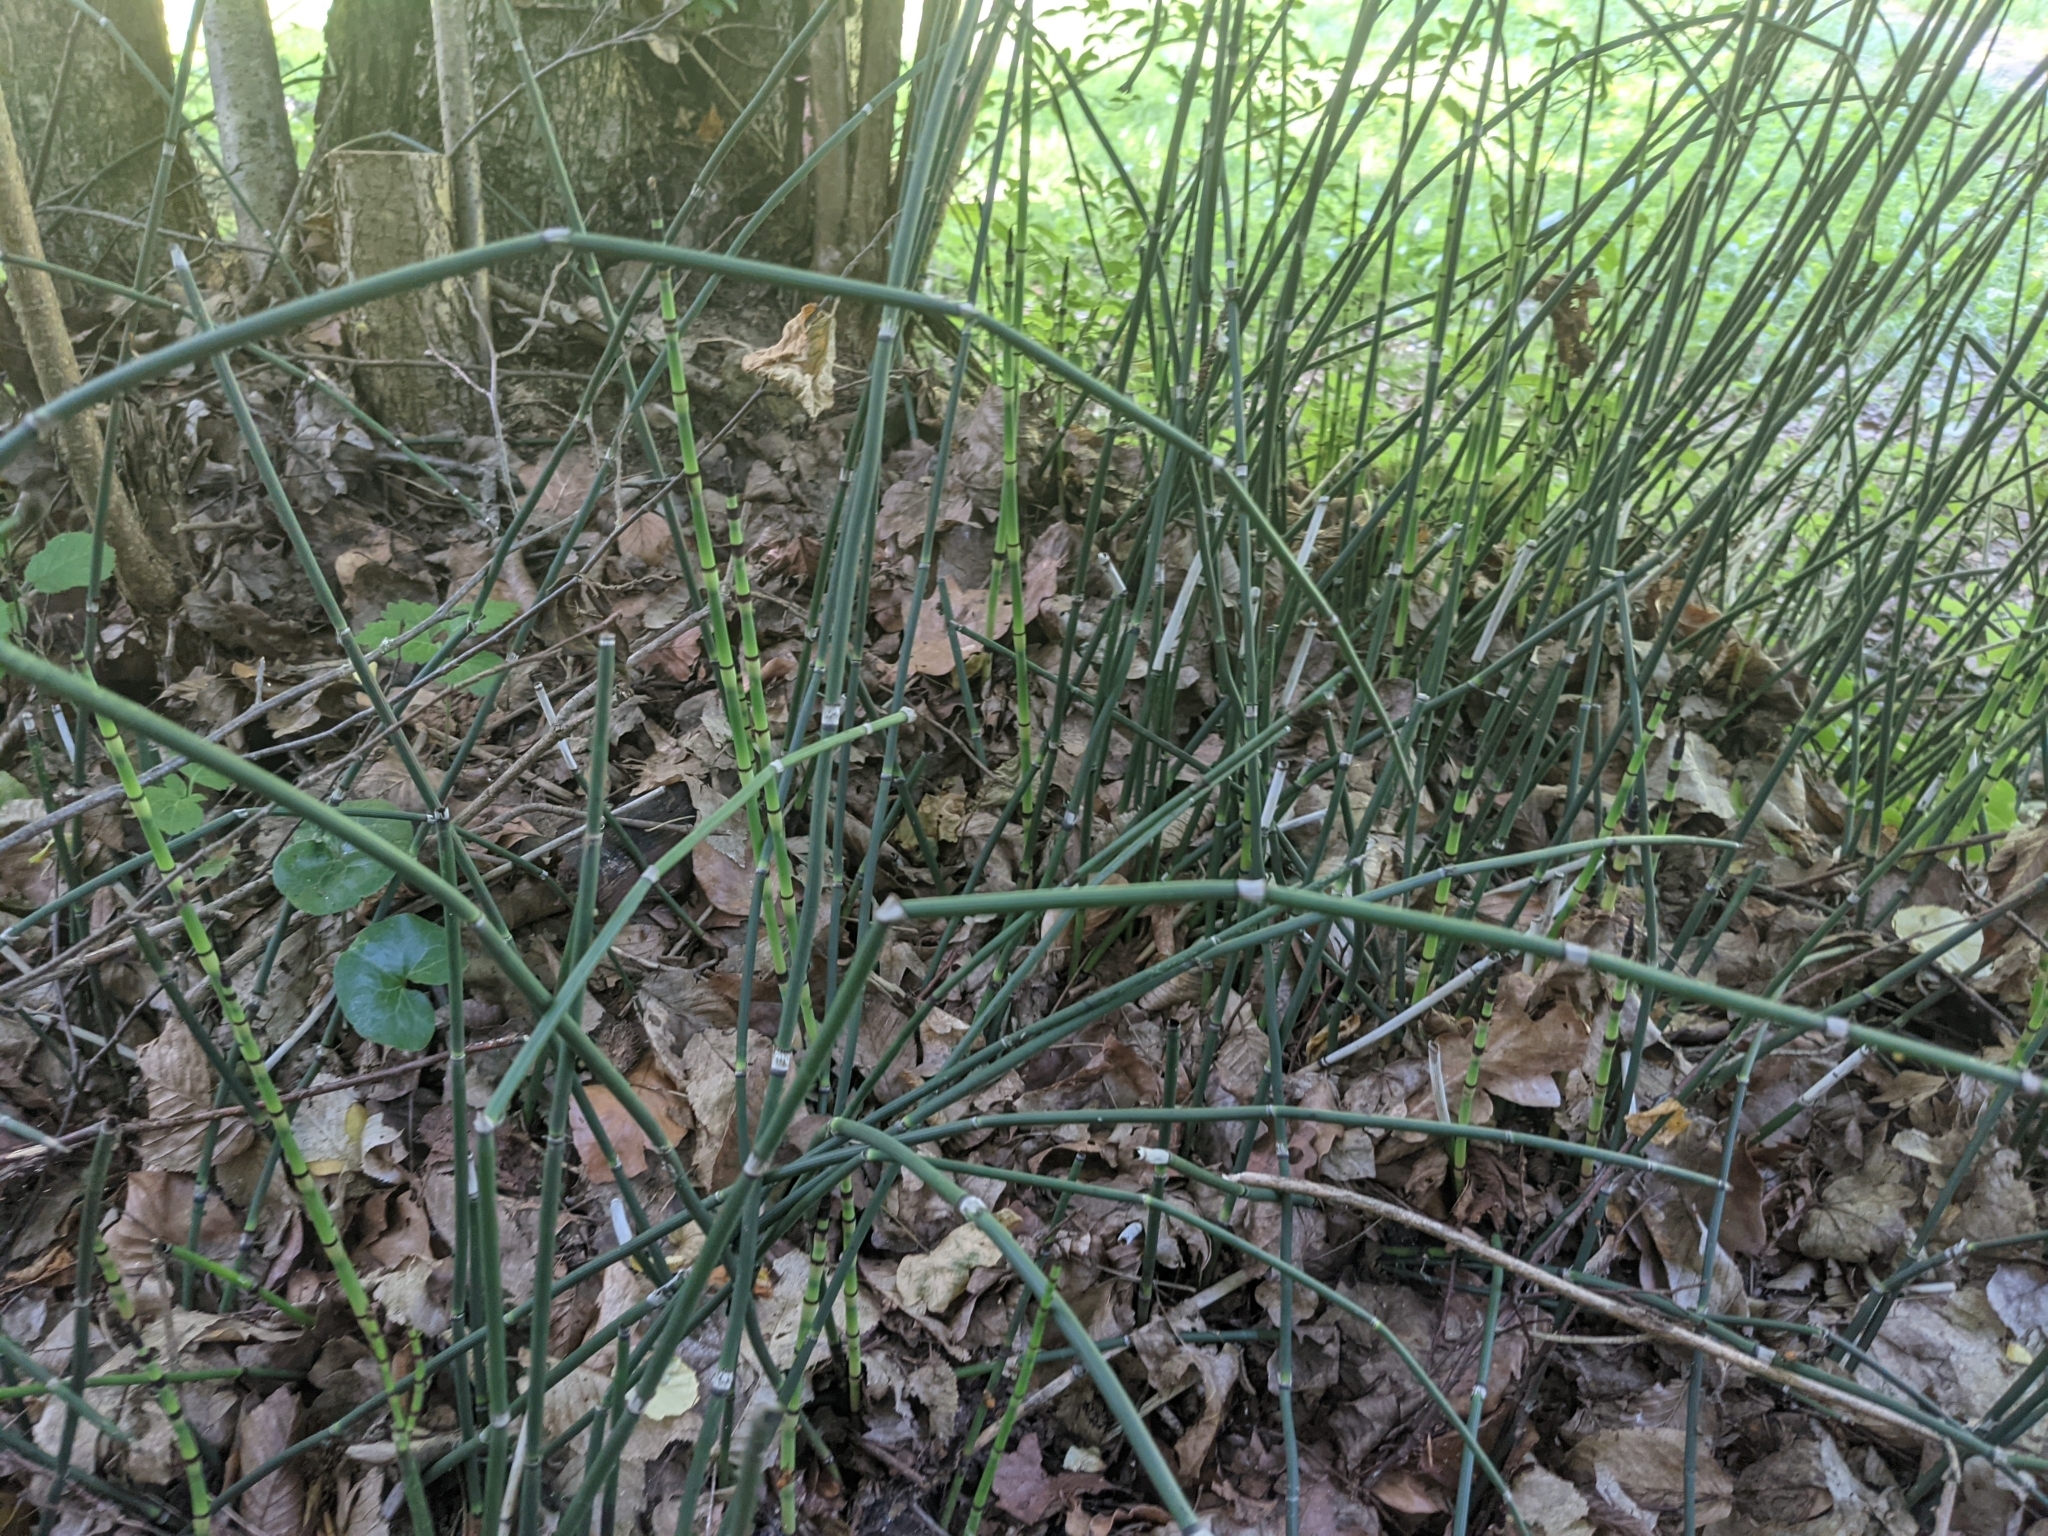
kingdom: Plantae
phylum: Tracheophyta
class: Polypodiopsida
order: Equisetales
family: Equisetaceae
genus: Equisetum
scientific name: Equisetum hyemale
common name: Rough horsetail
